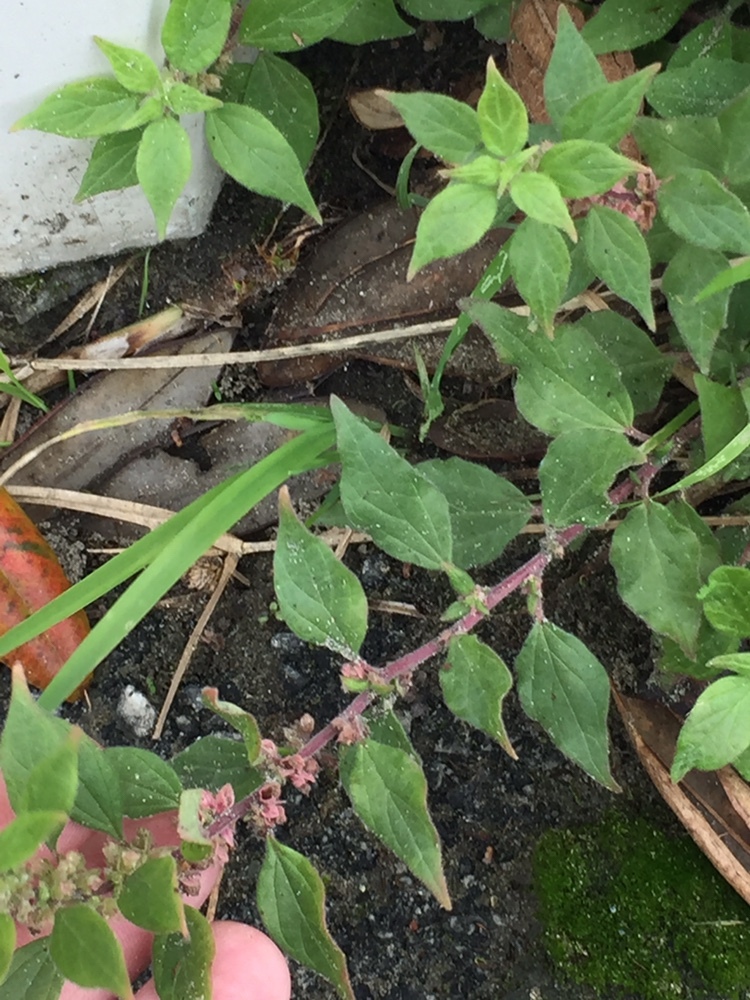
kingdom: Plantae
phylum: Tracheophyta
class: Magnoliopsida
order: Rosales
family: Urticaceae
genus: Parietaria
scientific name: Parietaria judaica
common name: Pellitory-of-the-wall
